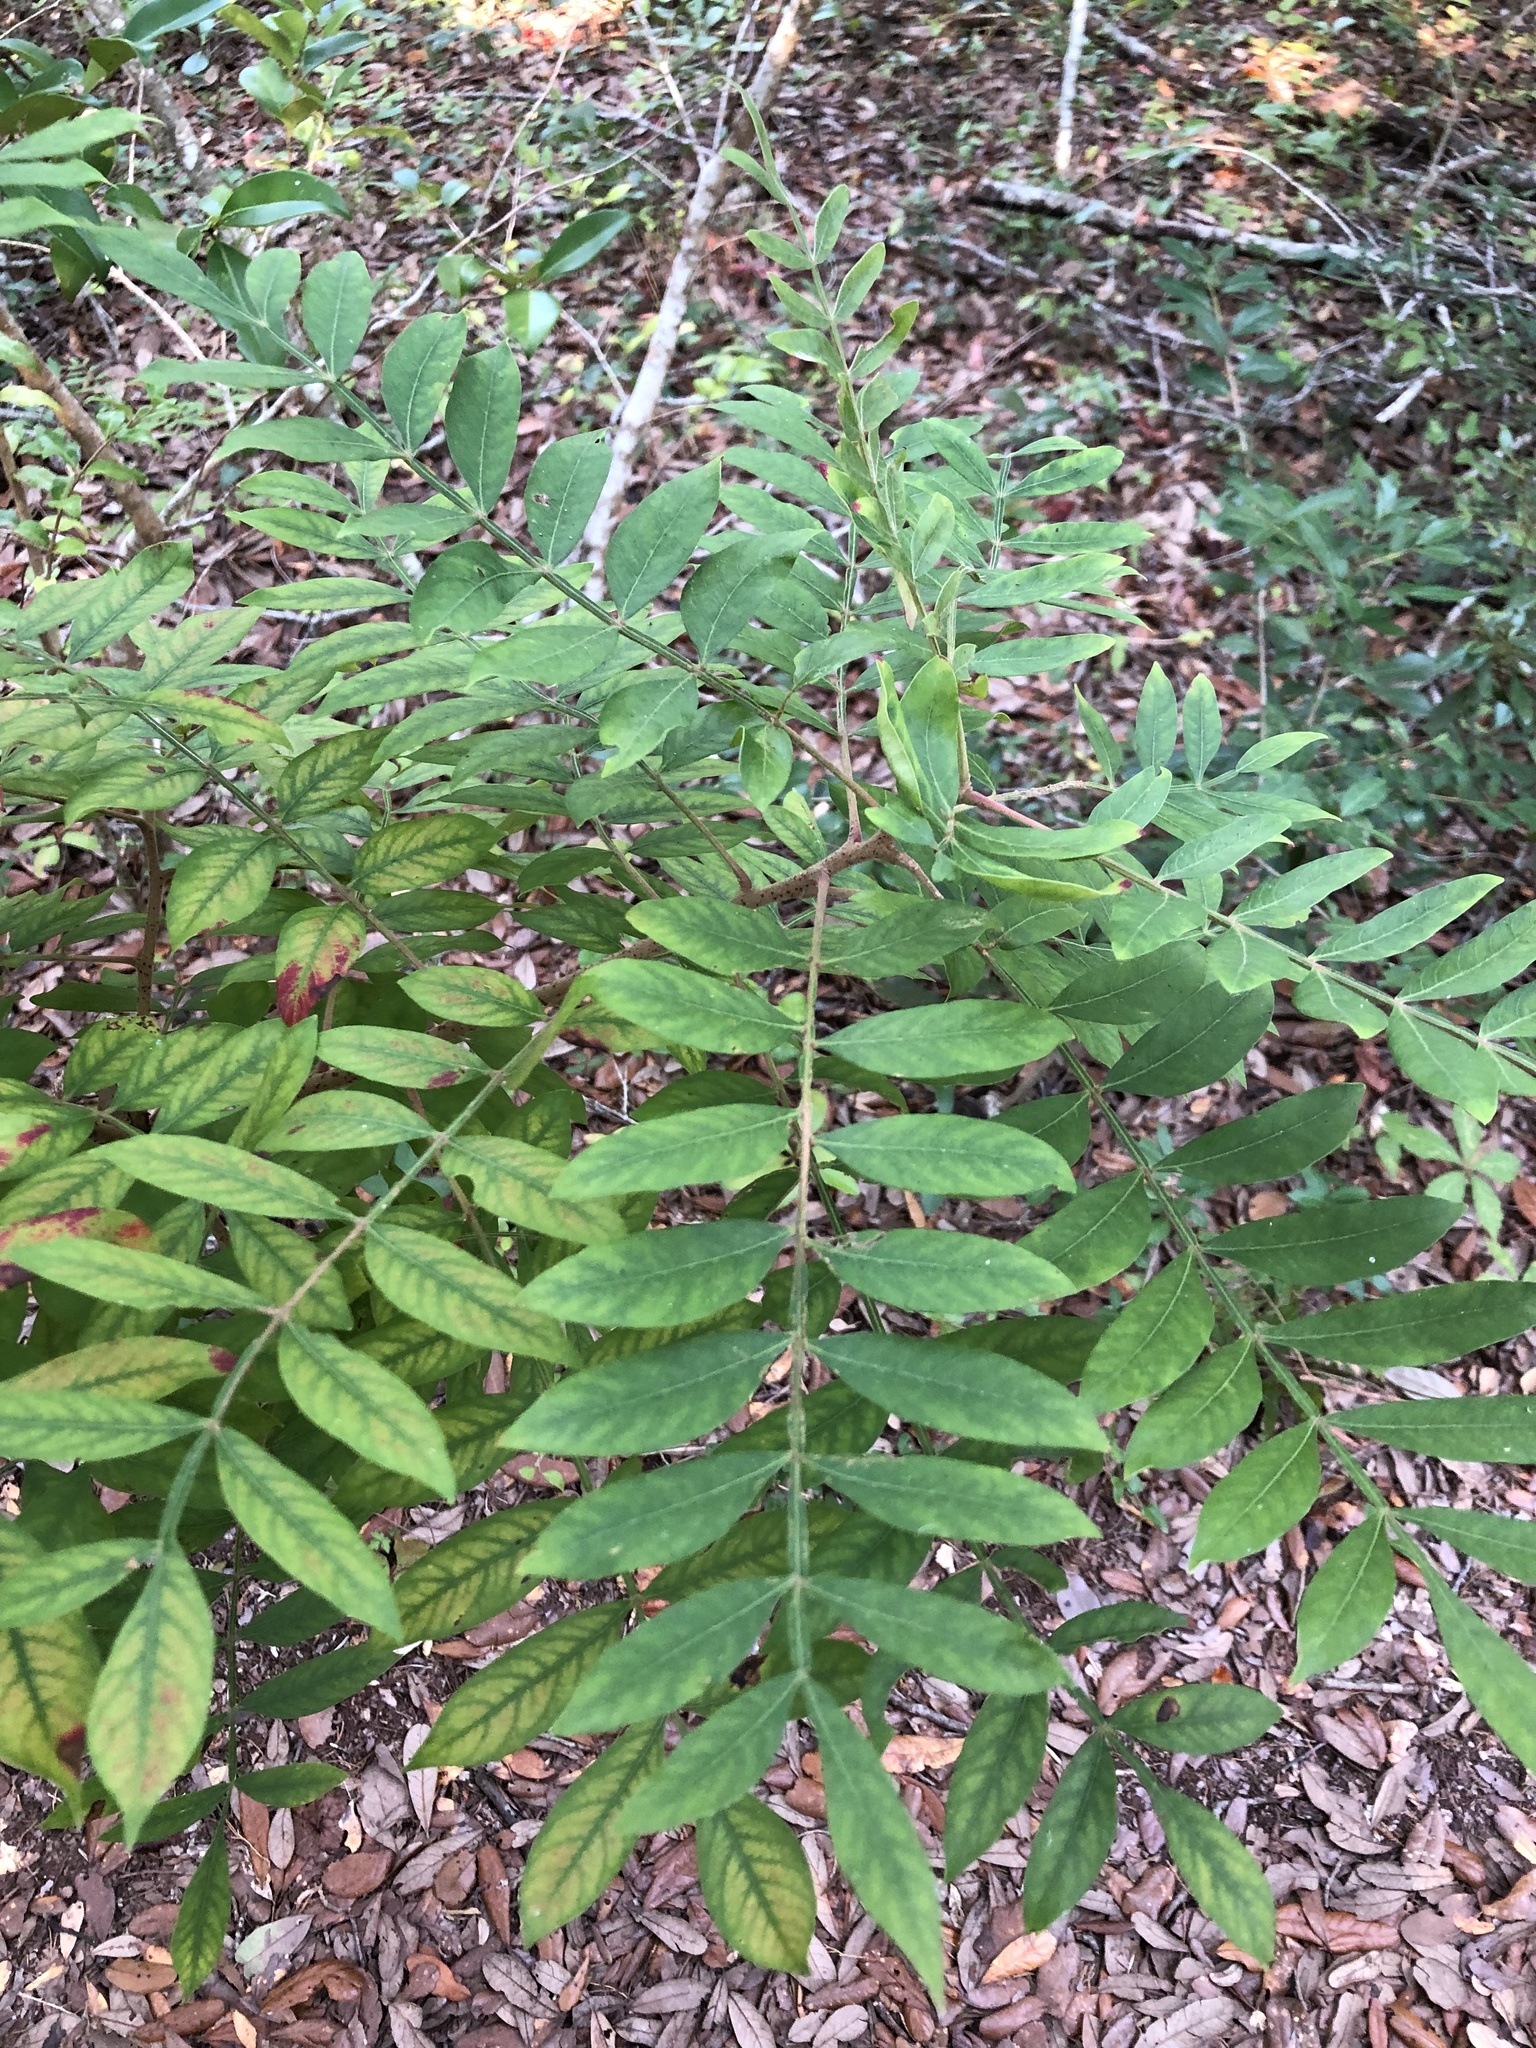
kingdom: Plantae
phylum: Tracheophyta
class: Magnoliopsida
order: Sapindales
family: Anacardiaceae
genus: Rhus
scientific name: Rhus copallina
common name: Shining sumac
